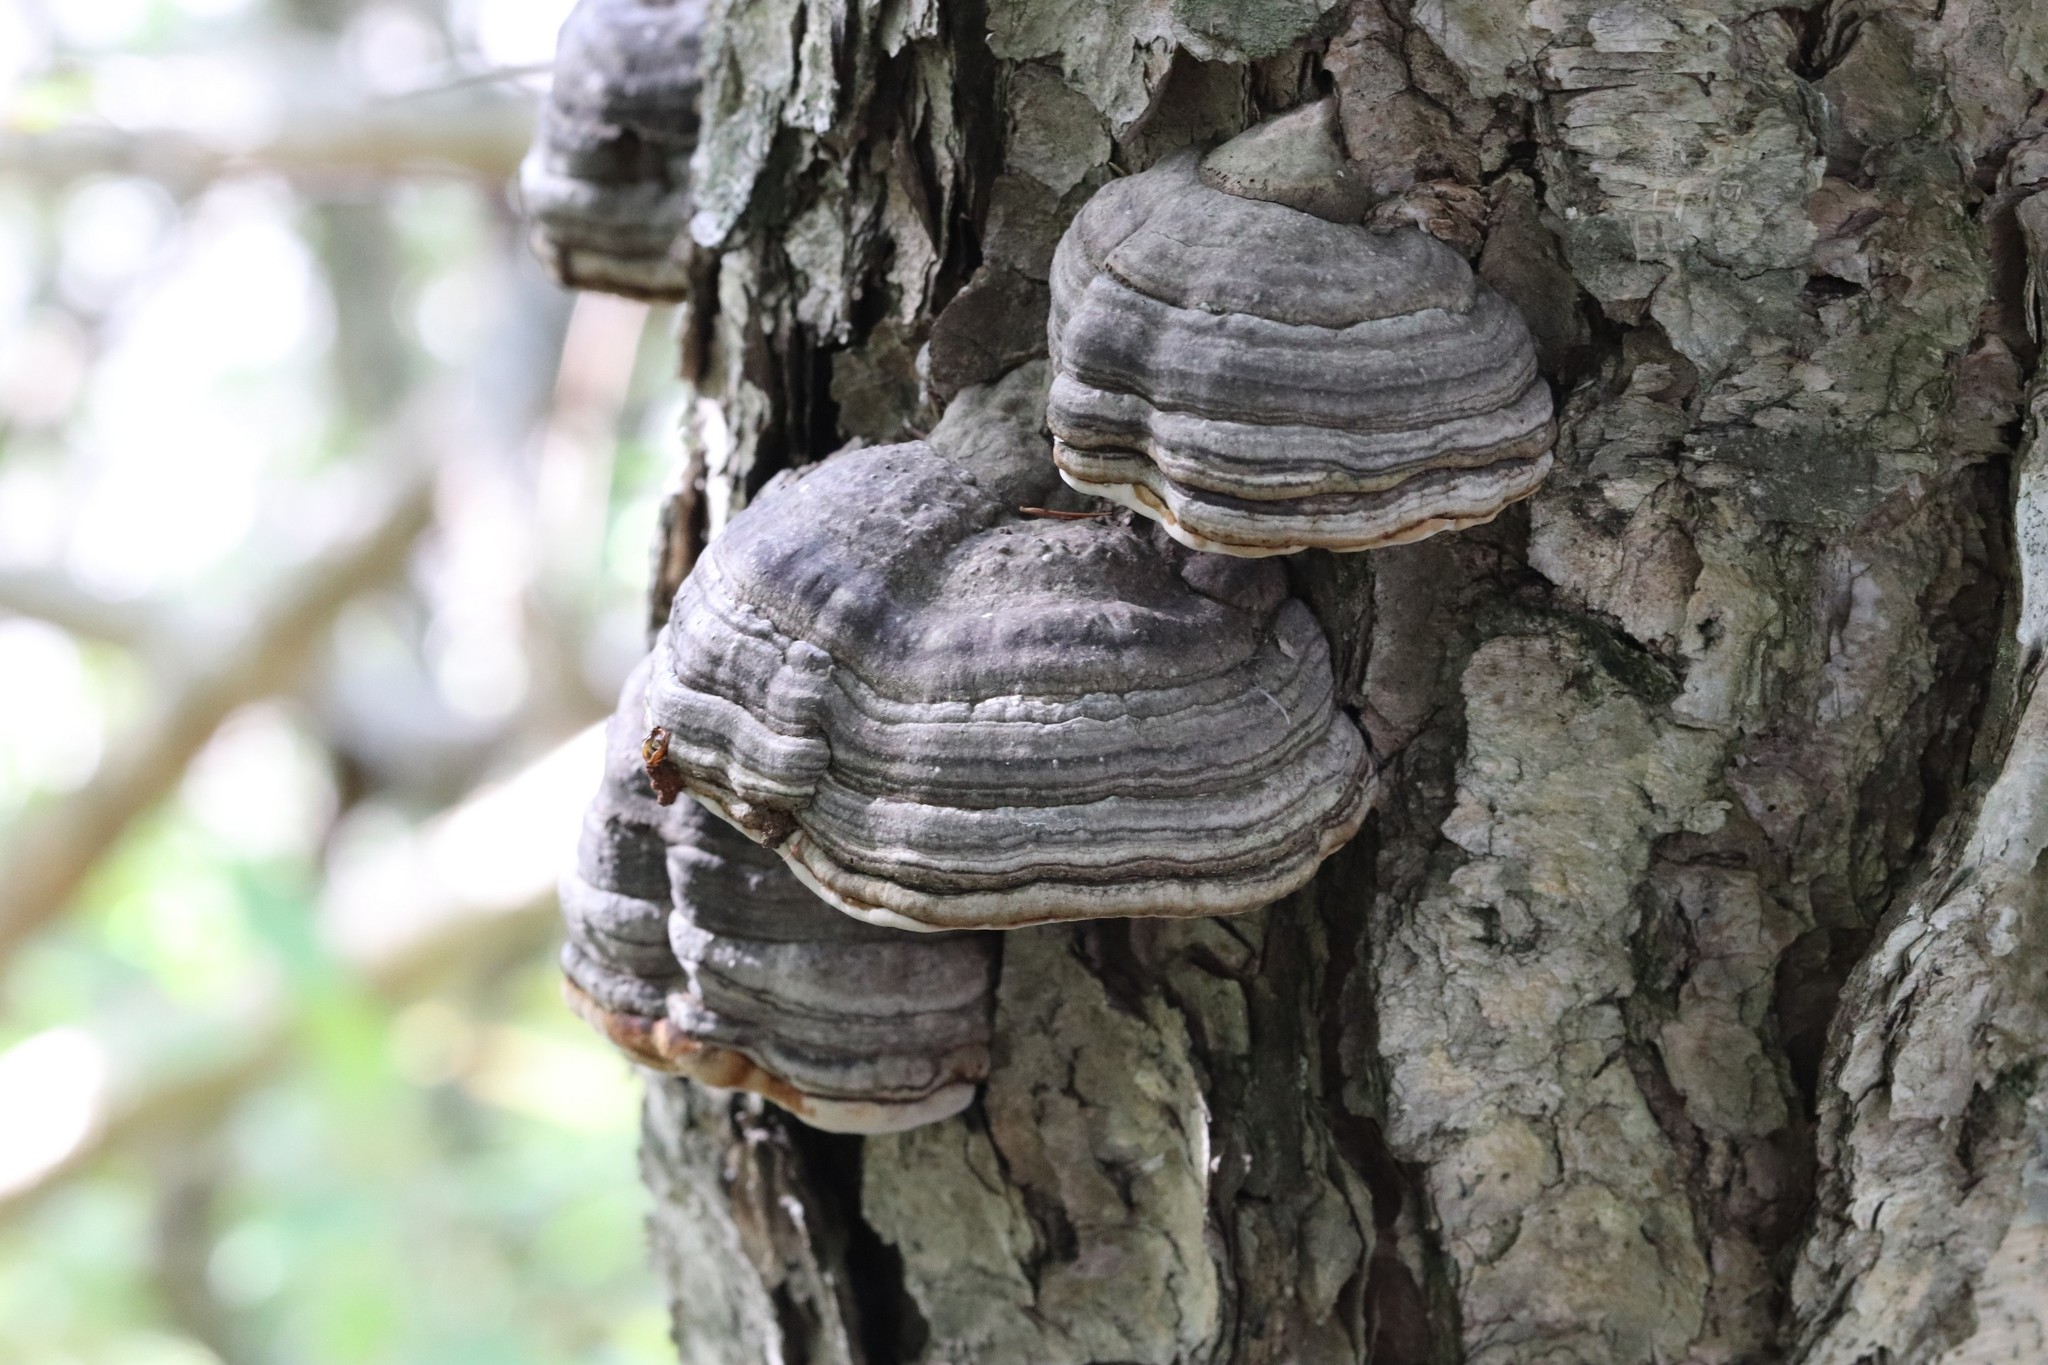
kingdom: Fungi
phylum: Basidiomycota
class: Agaricomycetes
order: Polyporales
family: Polyporaceae
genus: Fomes
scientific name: Fomes fomentarius
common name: Hoof fungus
